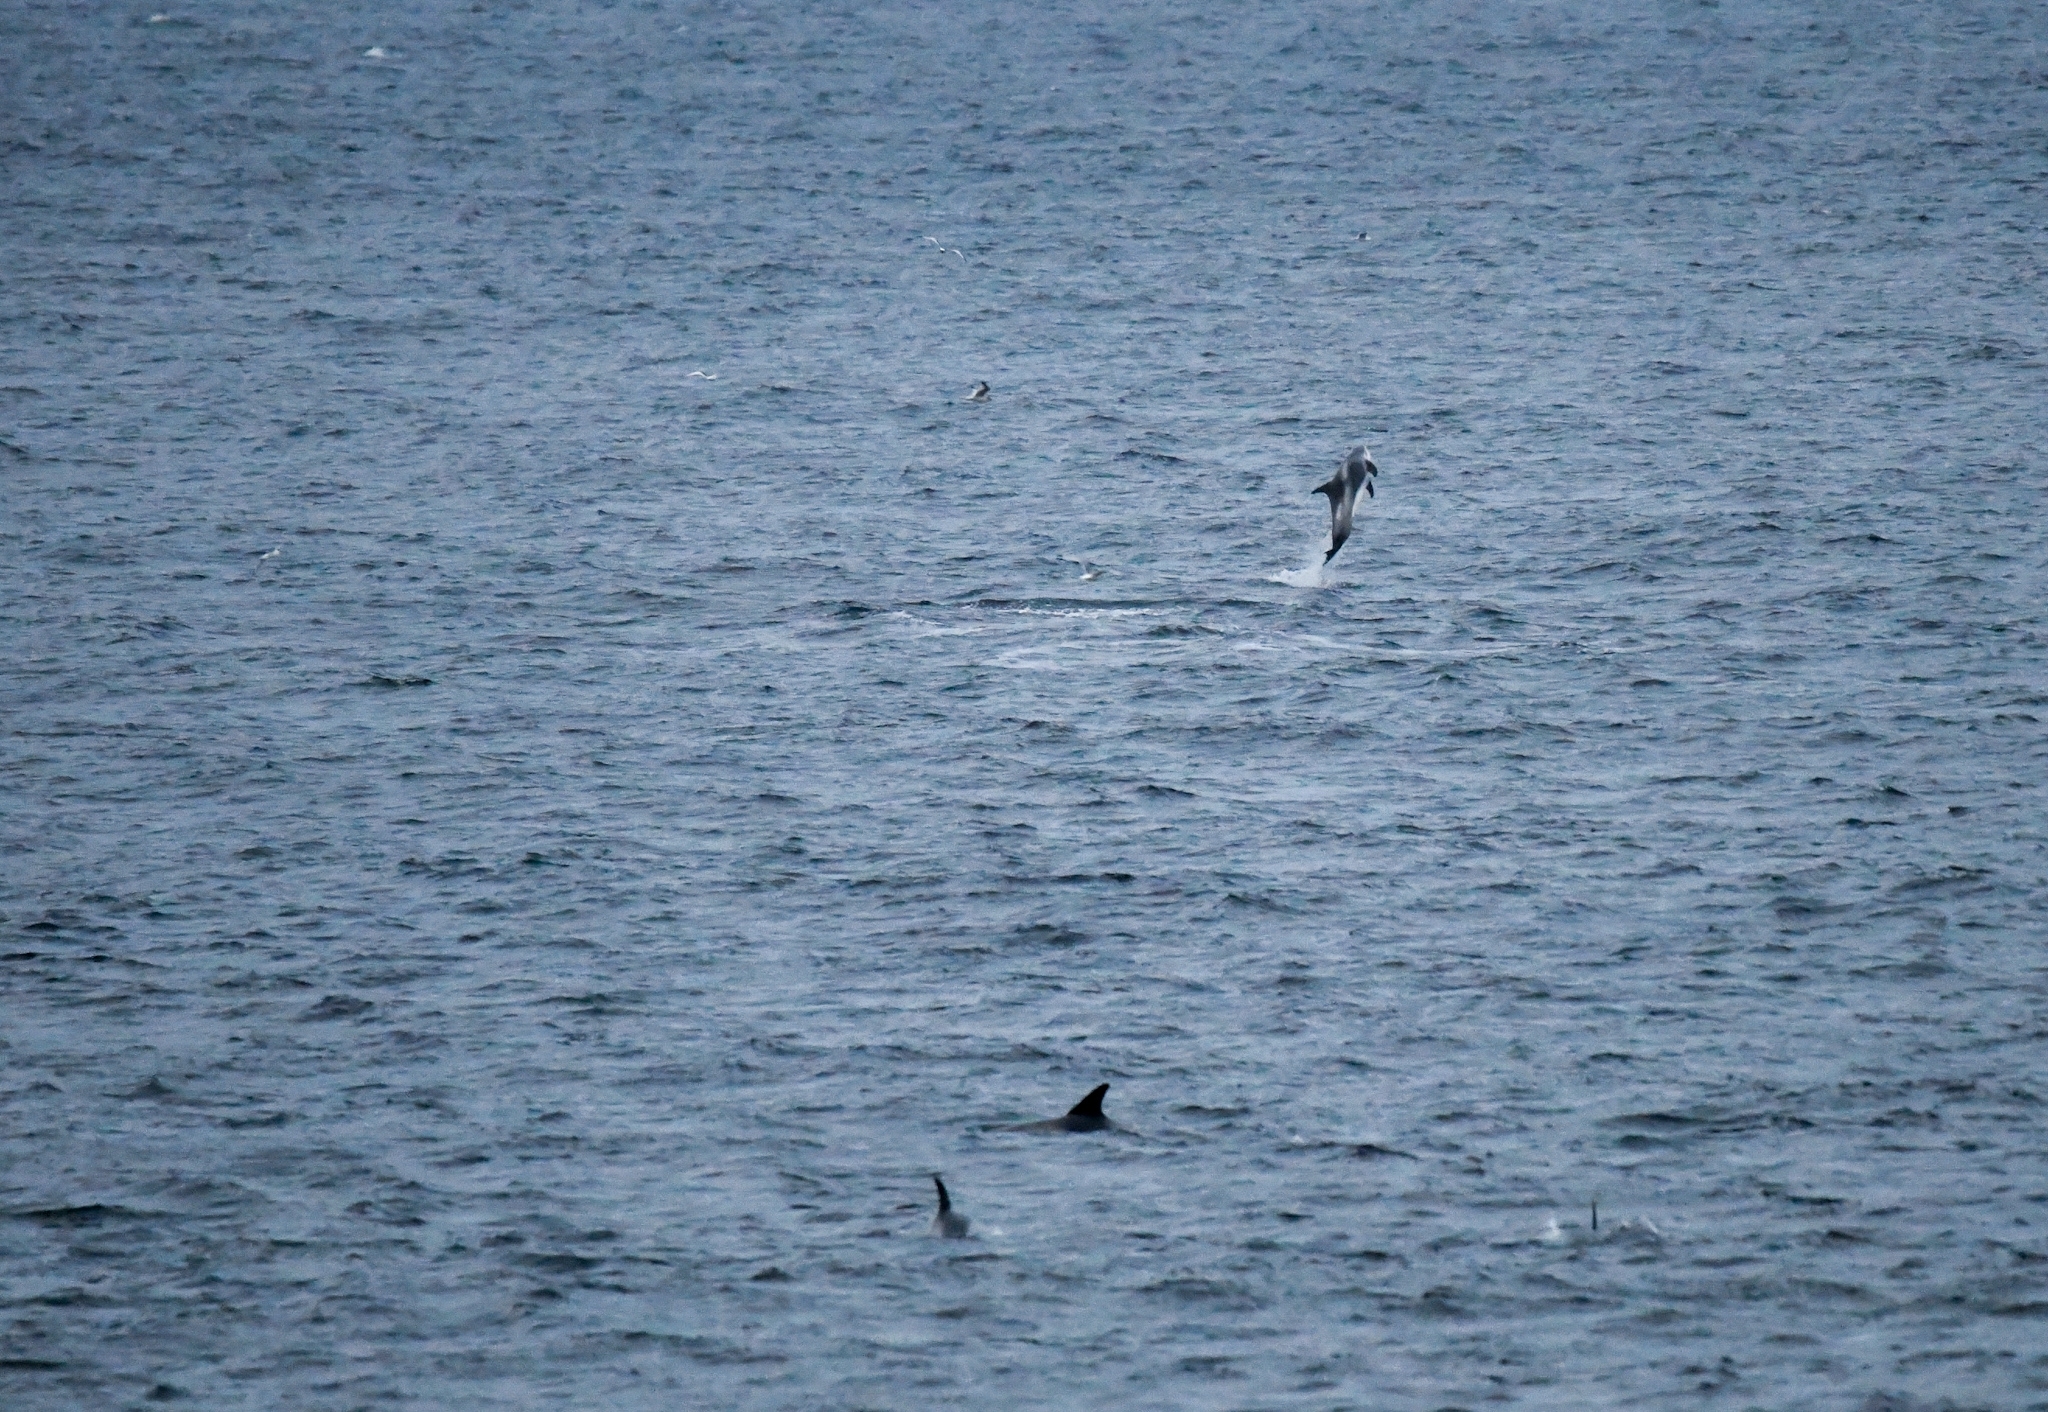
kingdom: Animalia
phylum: Chordata
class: Mammalia
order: Cetacea
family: Delphinidae
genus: Lagenorhynchus
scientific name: Lagenorhynchus albirostris
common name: White-beaked dolphin
